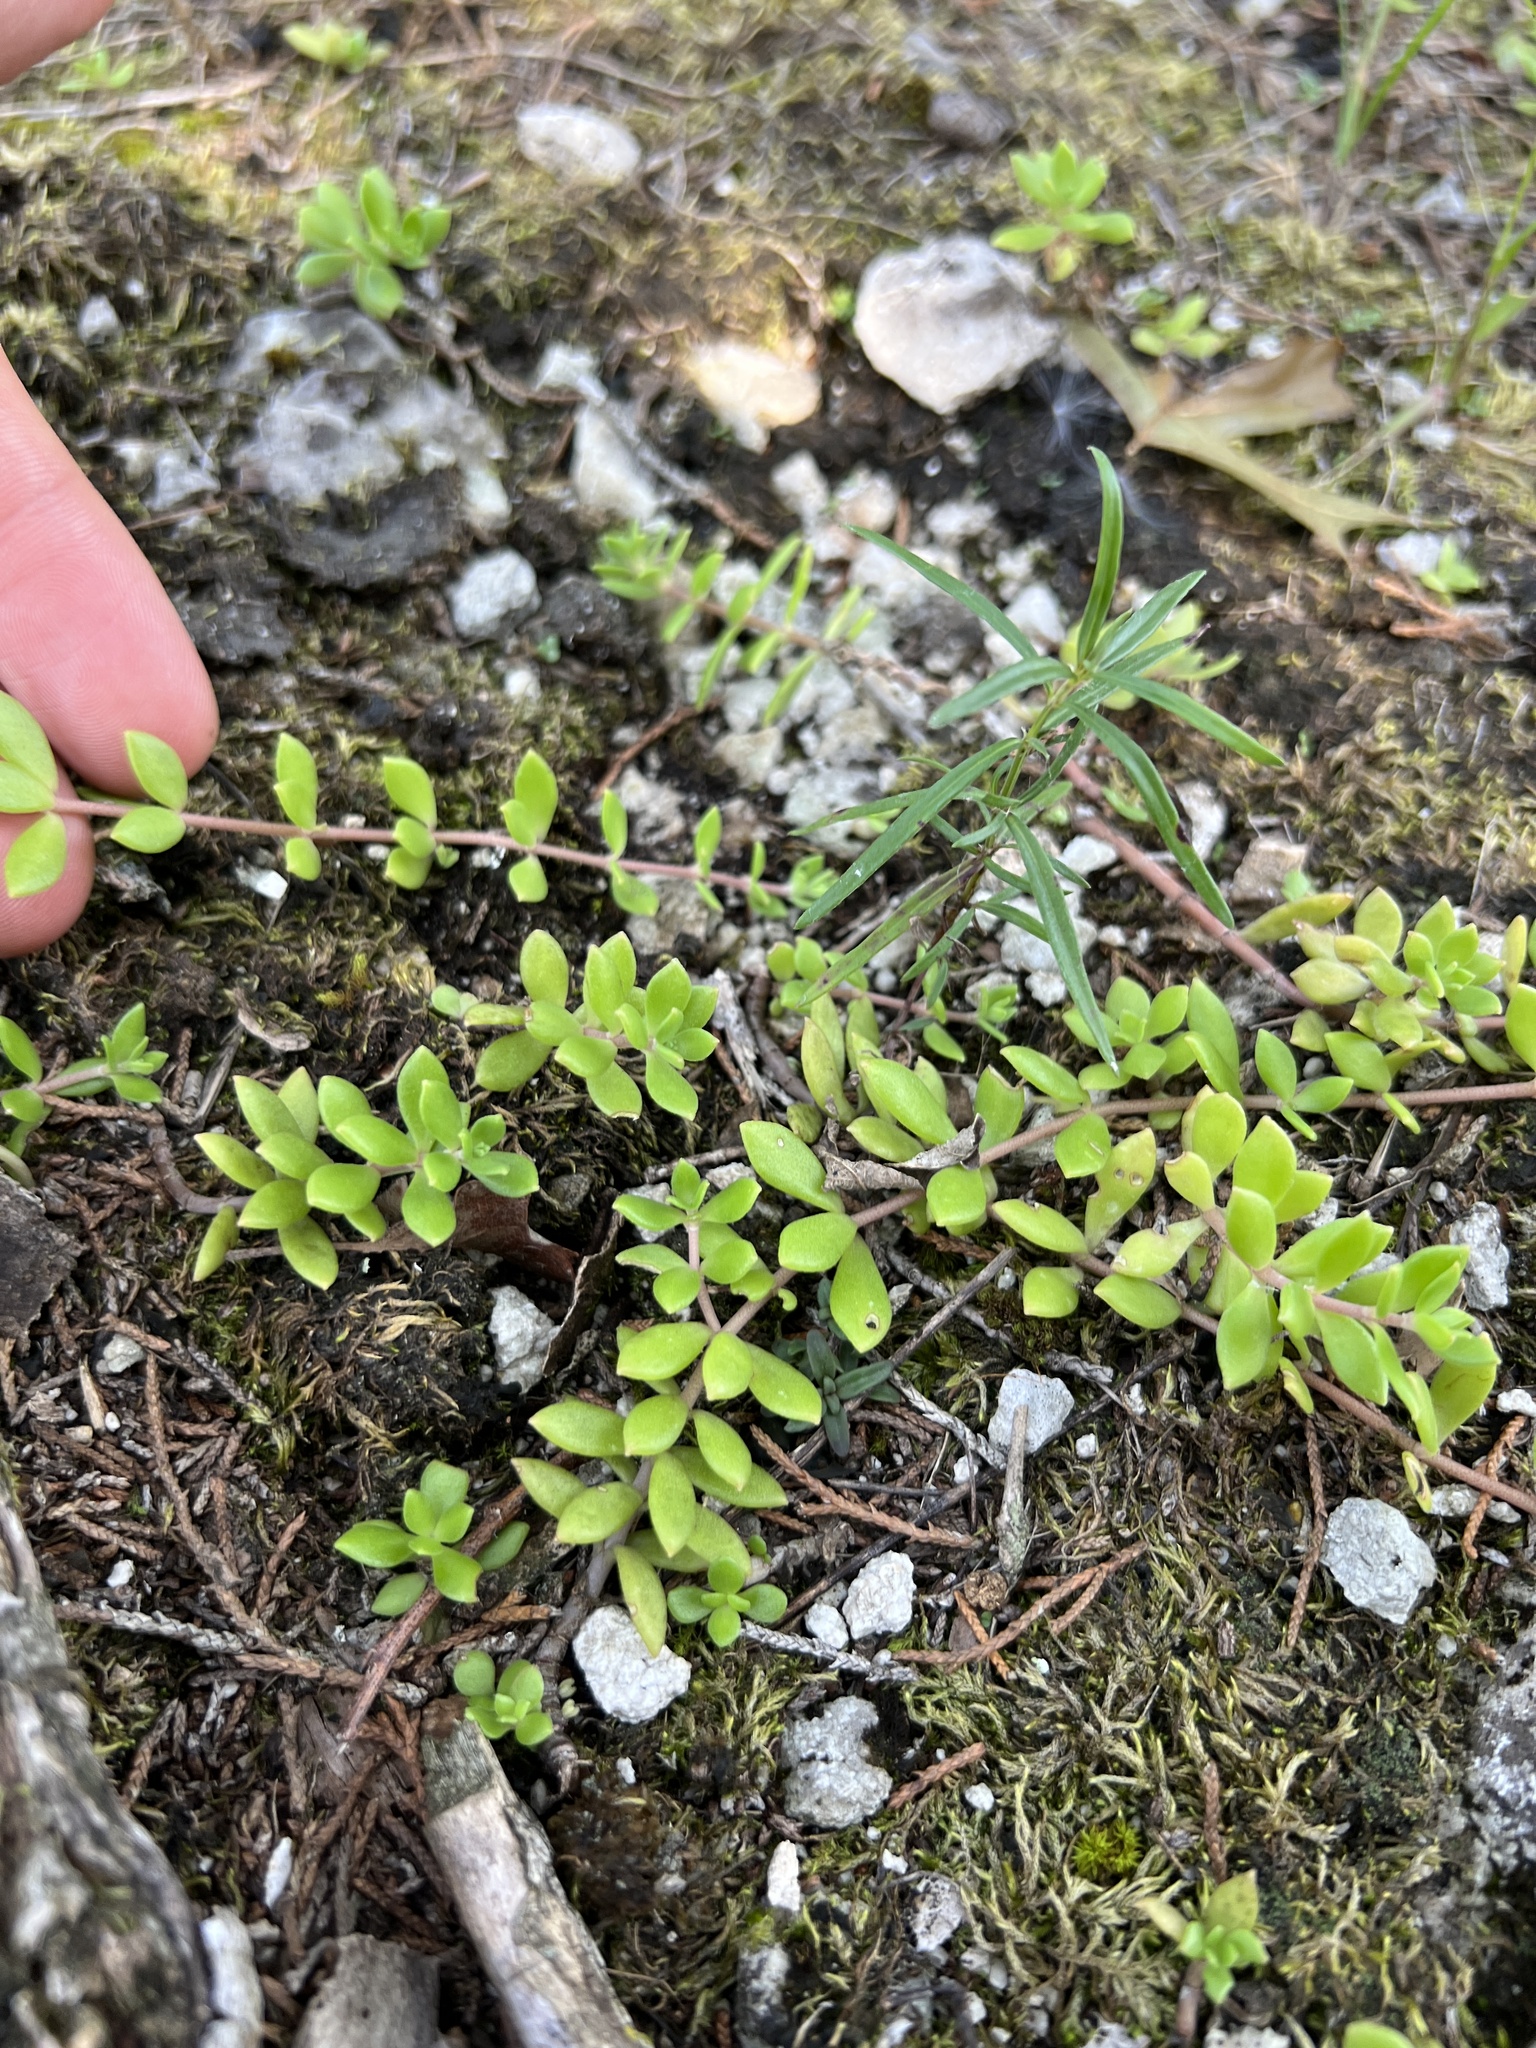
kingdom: Plantae
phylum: Tracheophyta
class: Magnoliopsida
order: Saxifragales
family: Crassulaceae
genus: Sedum
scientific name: Sedum sarmentosum
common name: Stringy stonecrop
